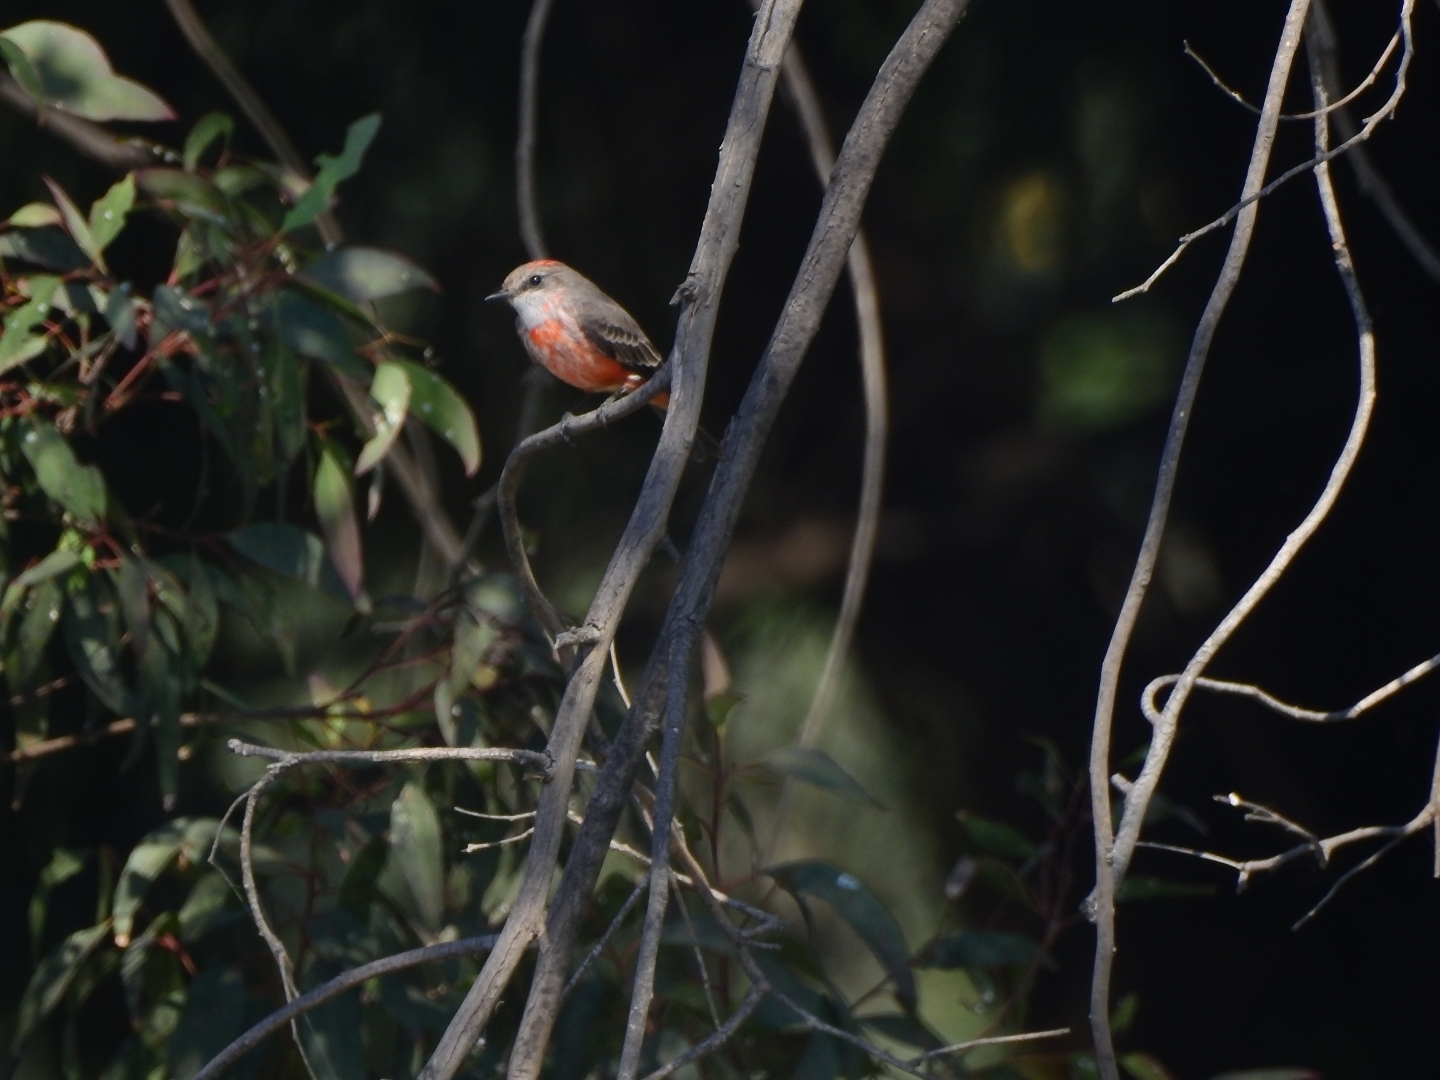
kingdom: Animalia
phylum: Chordata
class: Aves
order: Passeriformes
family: Tyrannidae
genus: Pyrocephalus
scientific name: Pyrocephalus rubinus
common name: Vermilion flycatcher
